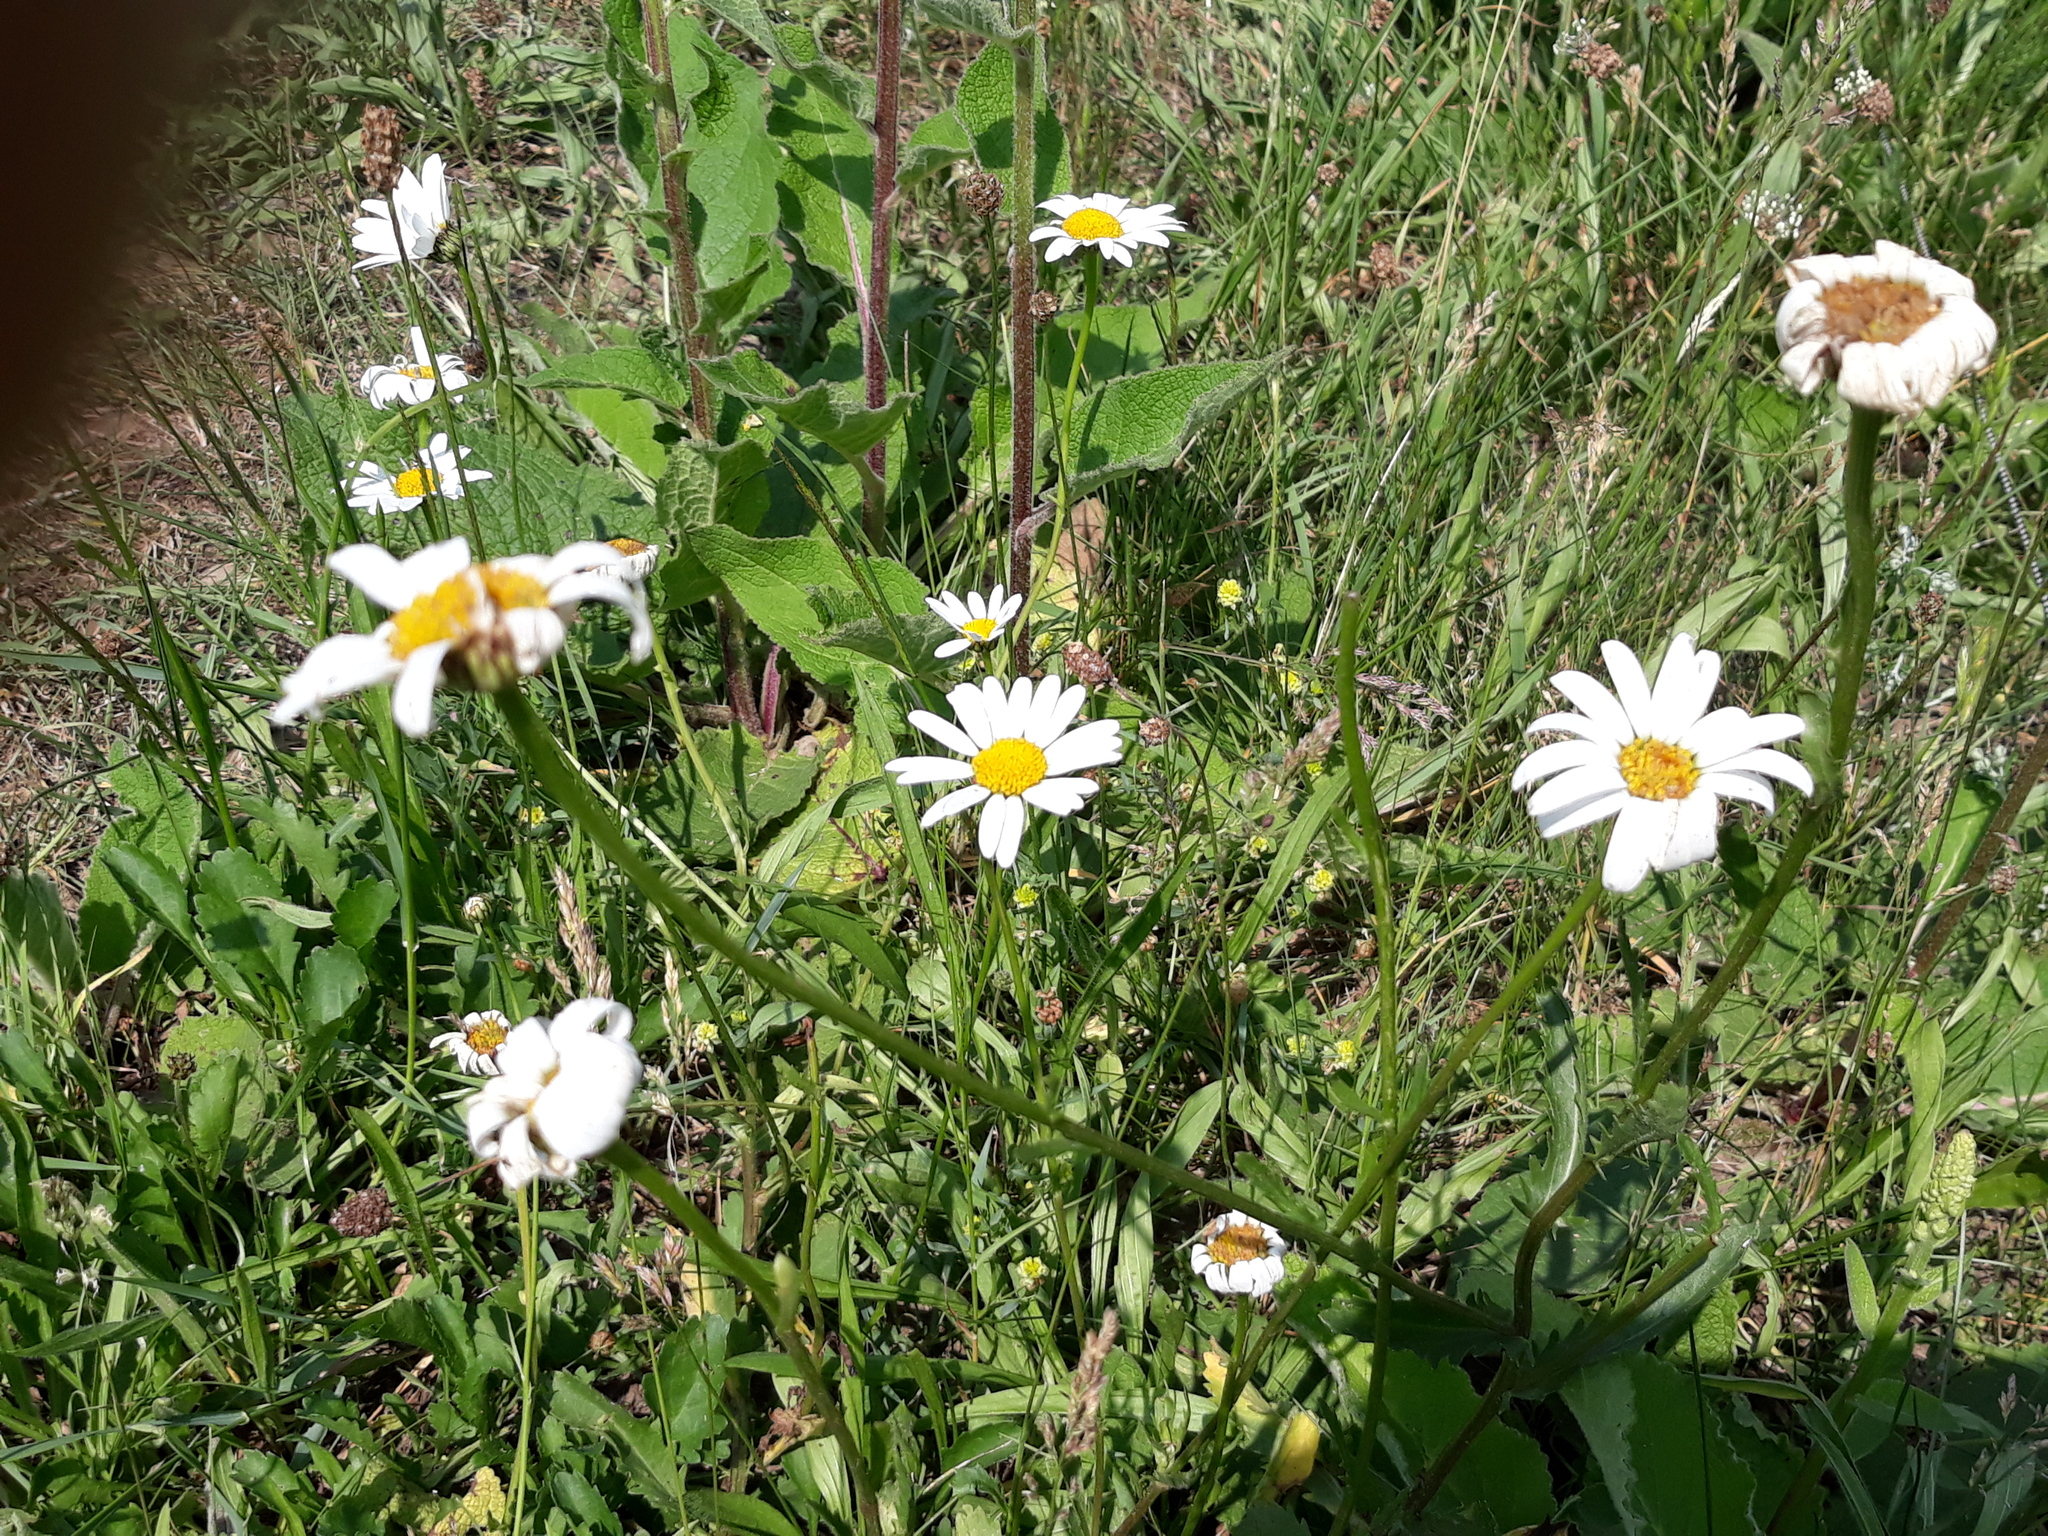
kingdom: Plantae
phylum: Tracheophyta
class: Magnoliopsida
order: Asterales
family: Asteraceae
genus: Leucanthemum
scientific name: Leucanthemum vulgare
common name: Oxeye daisy
